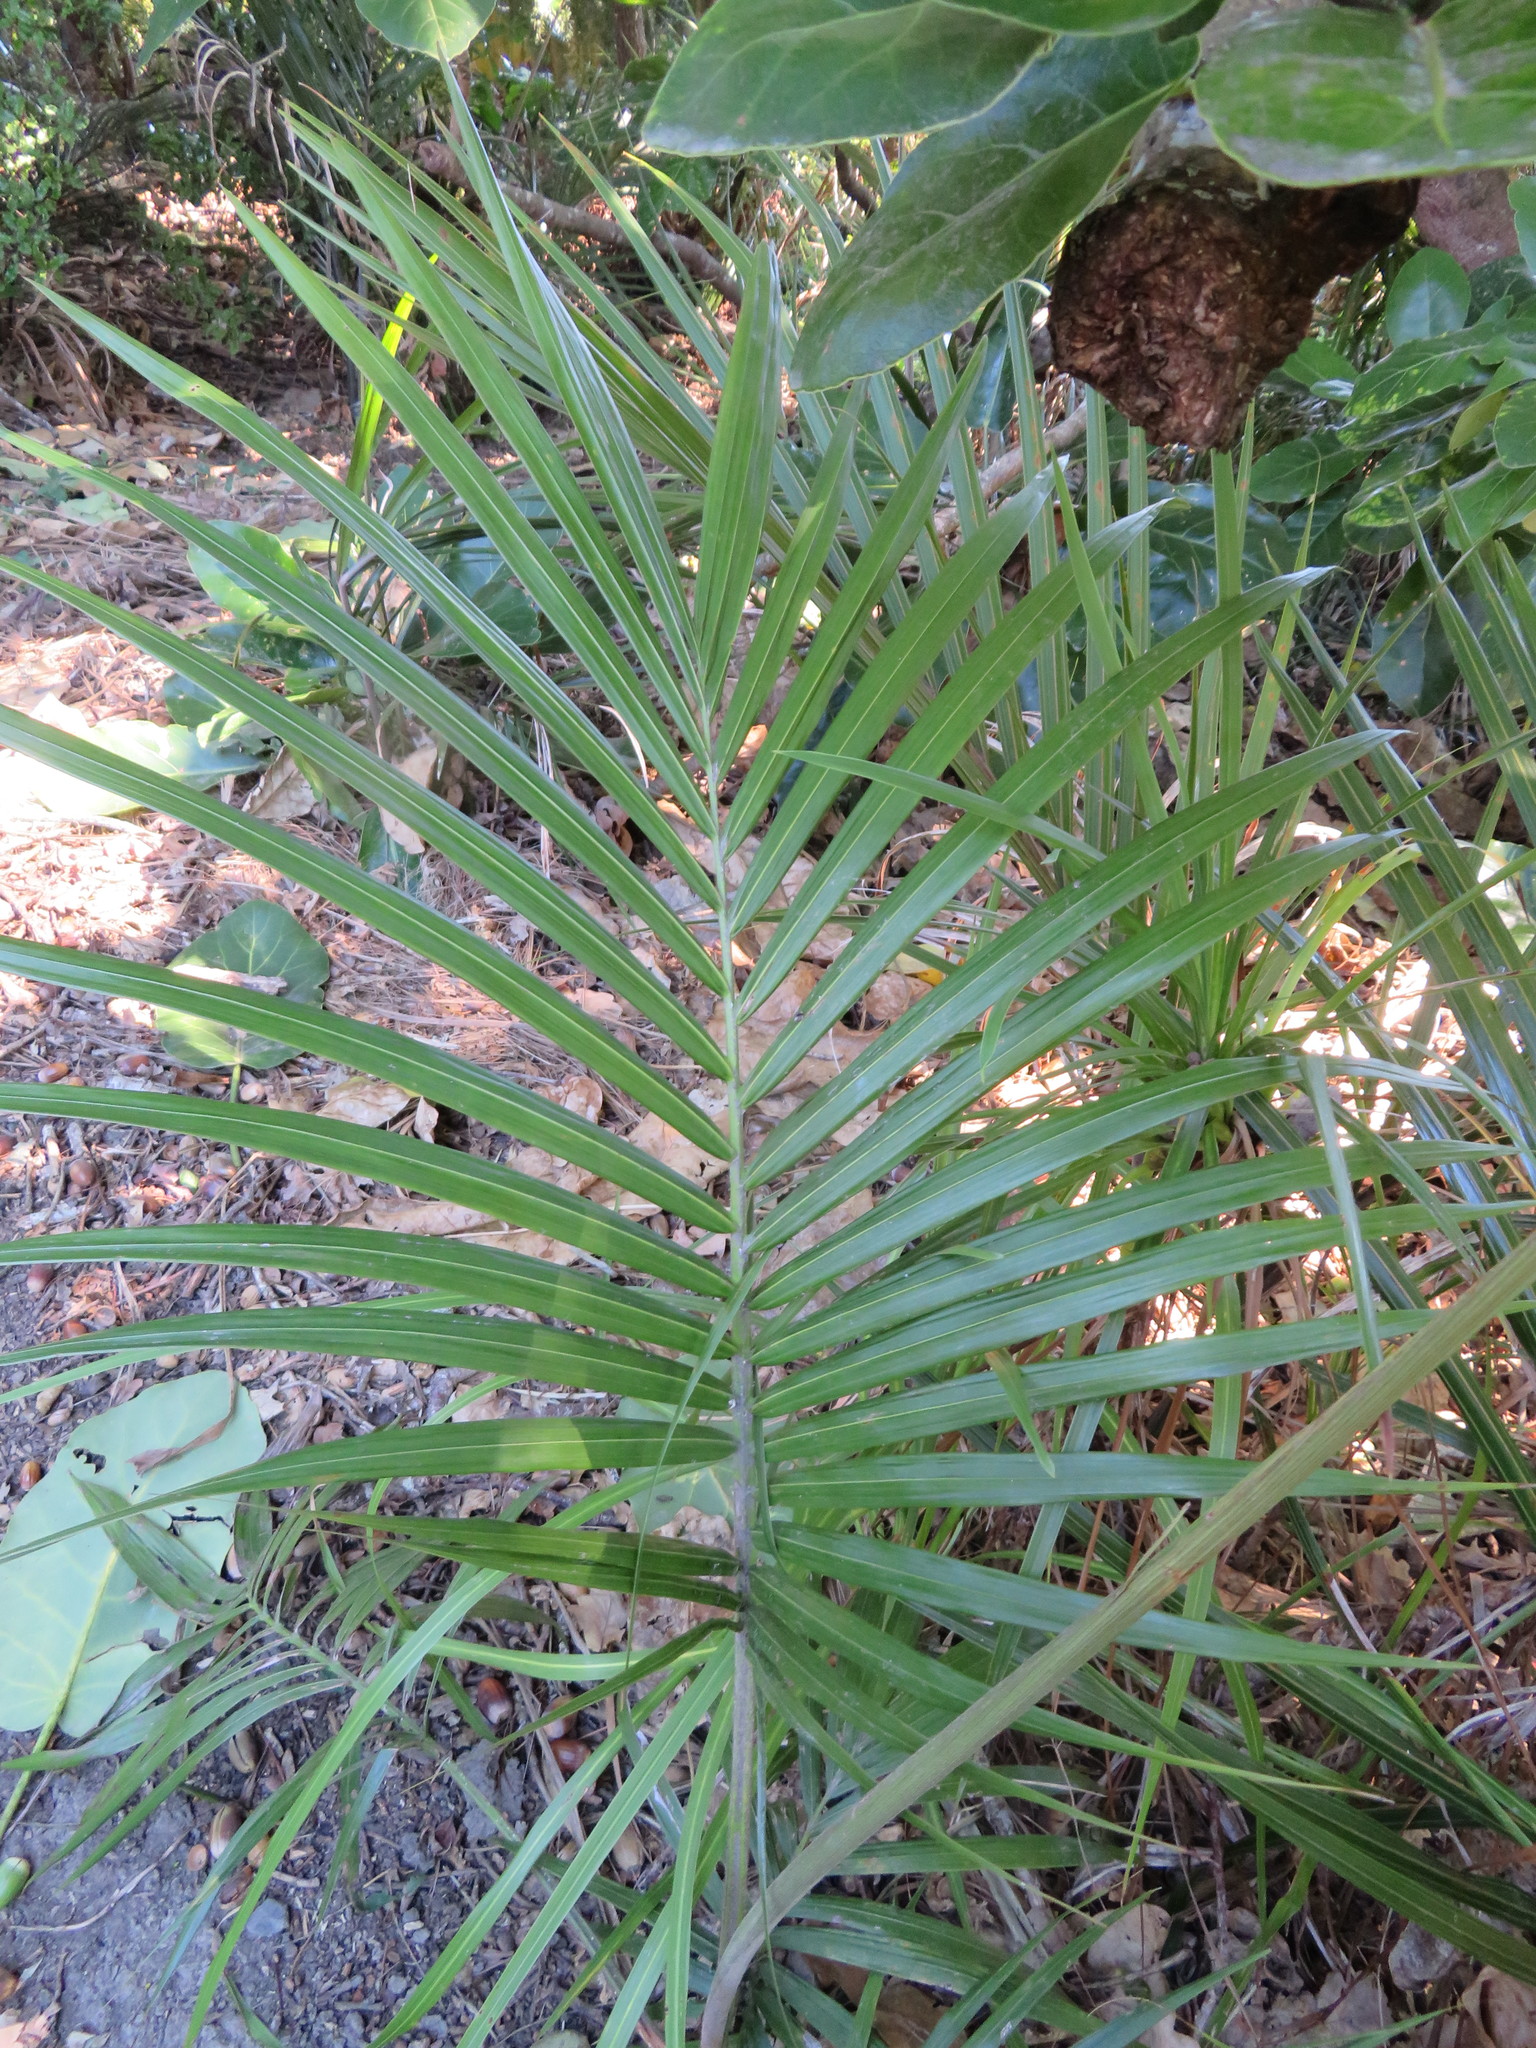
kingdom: Plantae
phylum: Tracheophyta
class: Liliopsida
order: Arecales
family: Arecaceae
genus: Archontophoenix
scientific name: Archontophoenix cunninghamiana
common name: Piccabeen bangalow palm
